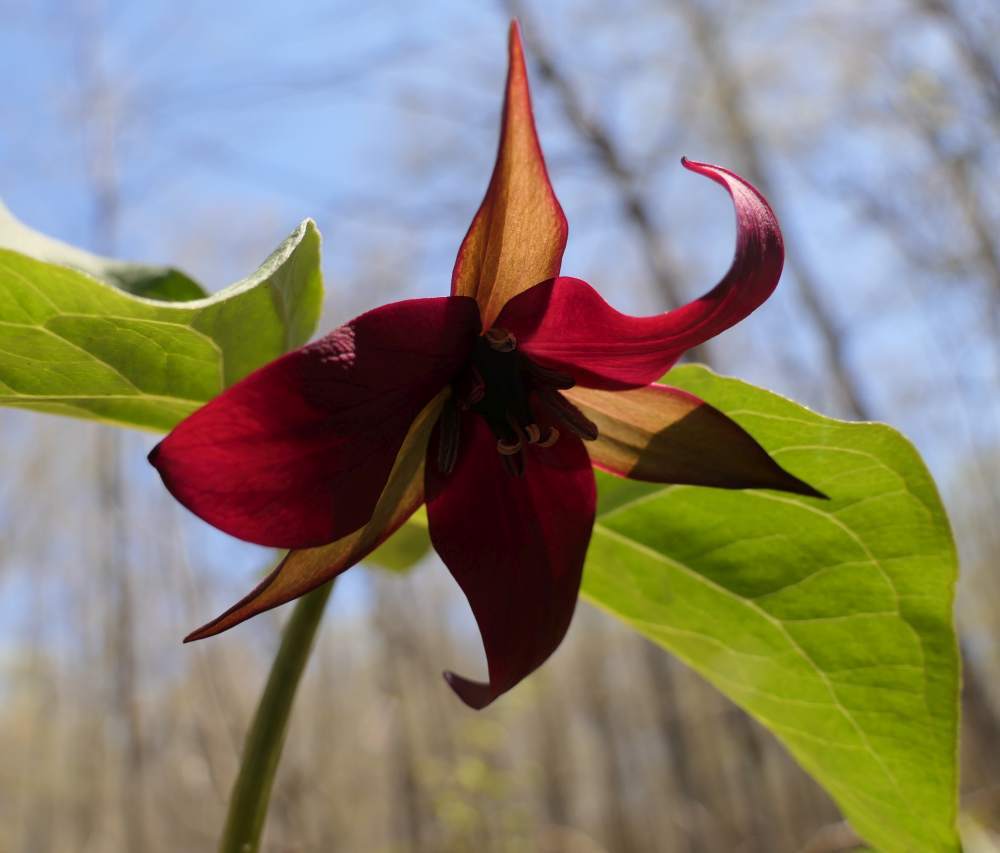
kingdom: Plantae
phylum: Tracheophyta
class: Liliopsida
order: Liliales
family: Melanthiaceae
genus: Trillium
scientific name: Trillium erectum
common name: Purple trillium
